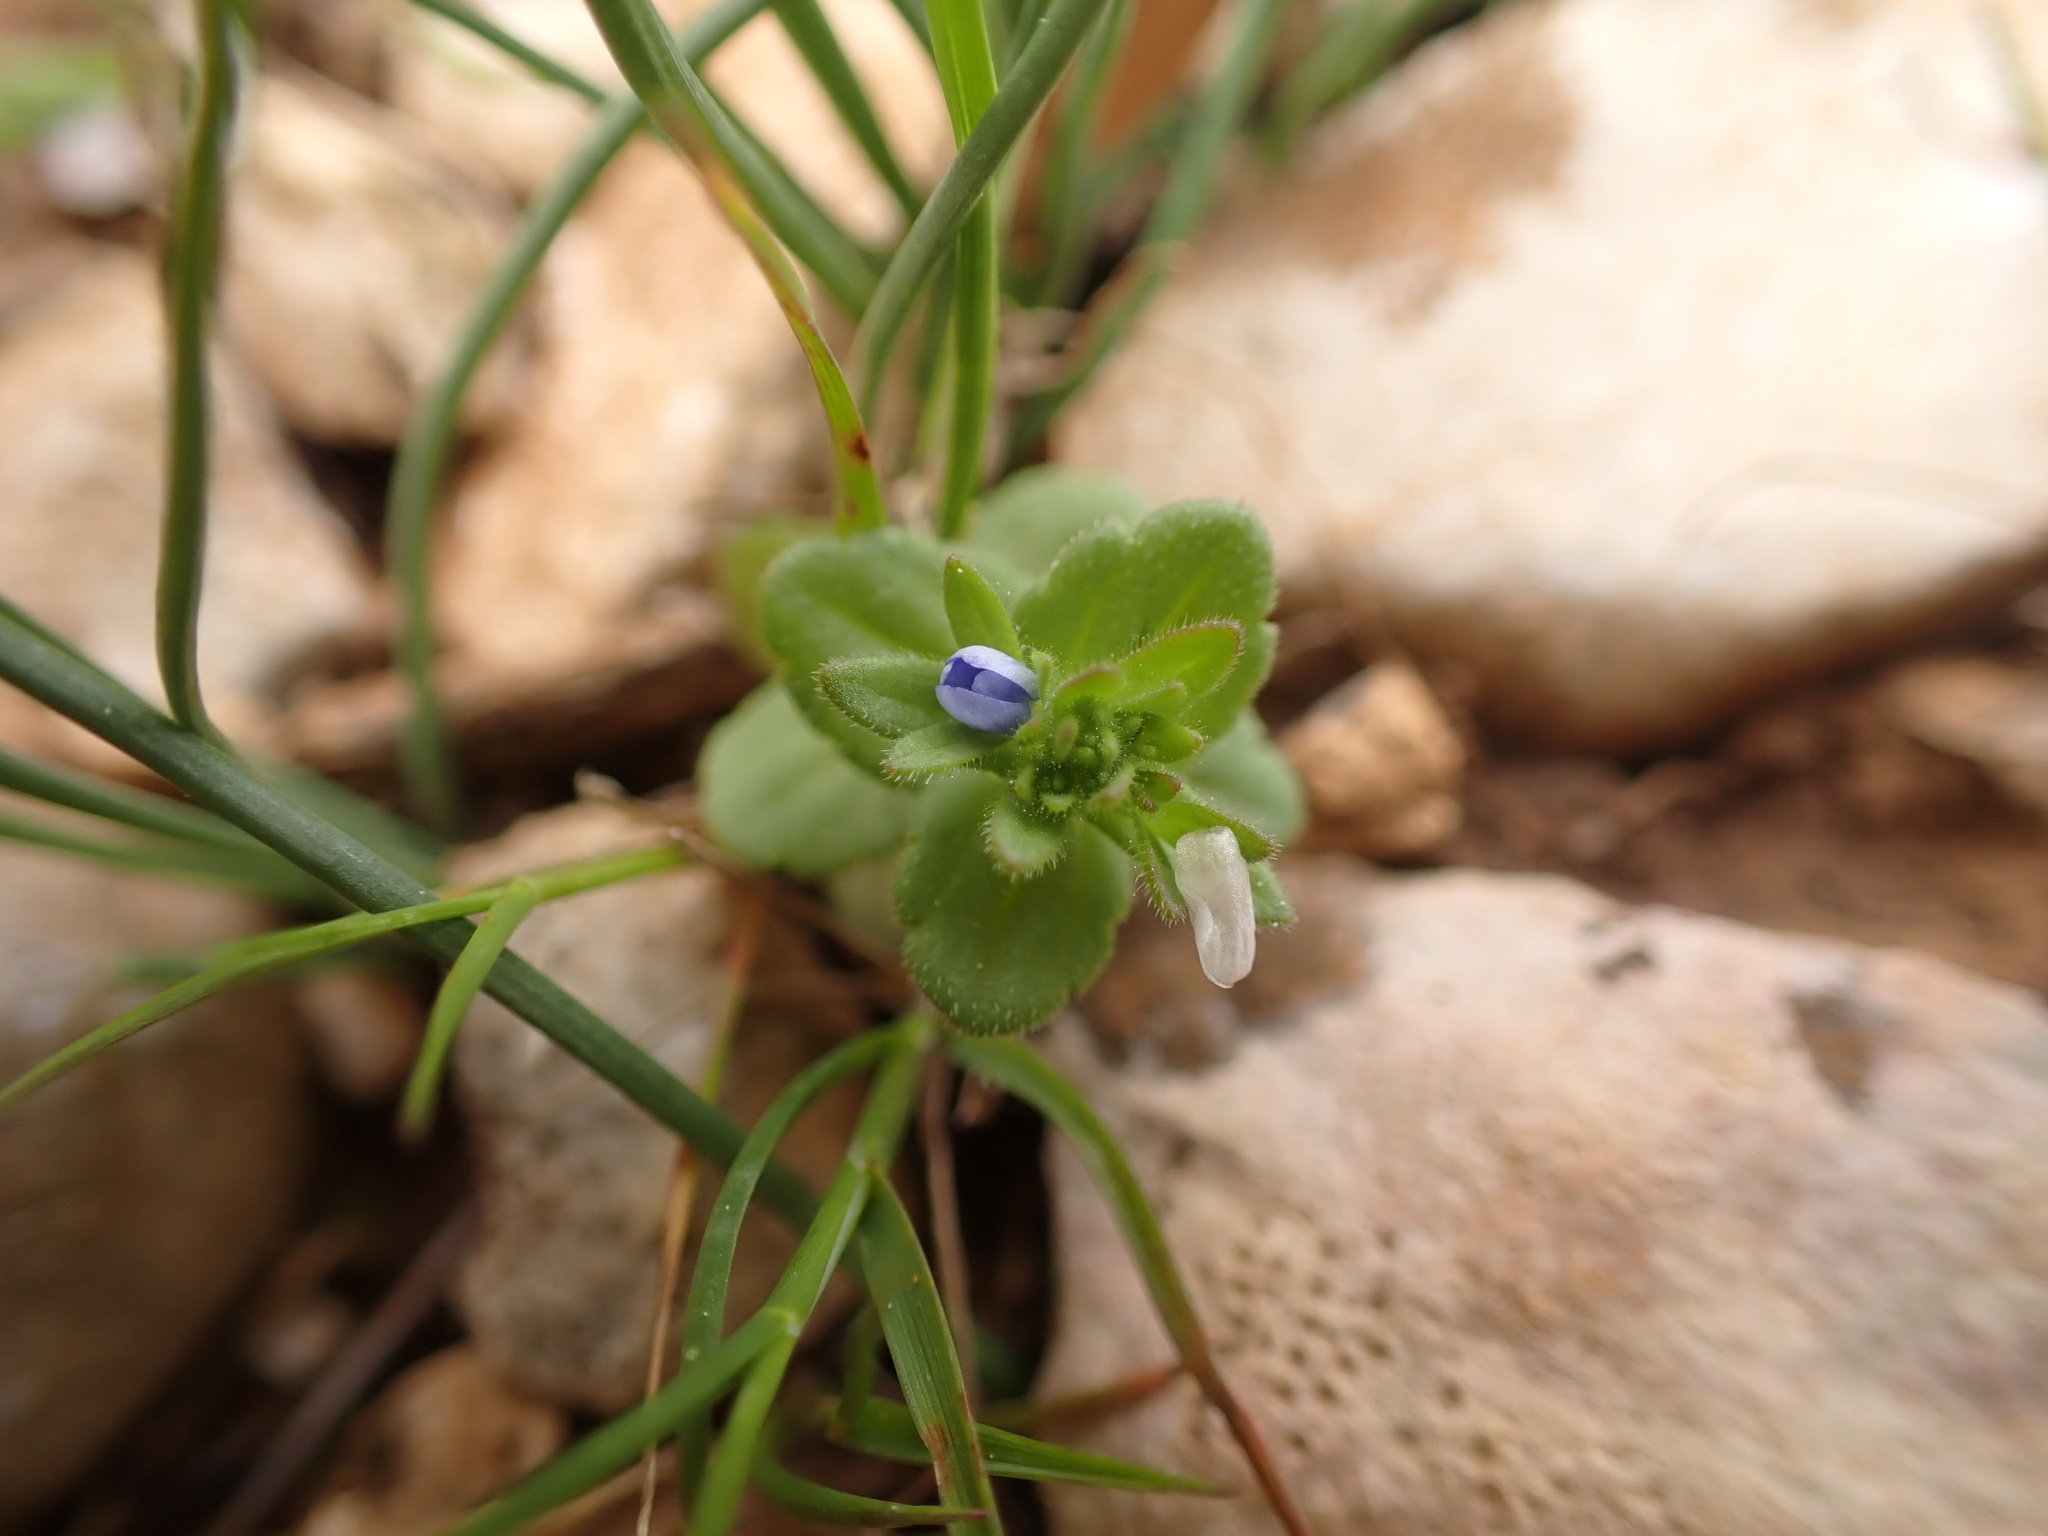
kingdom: Plantae
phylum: Tracheophyta
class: Magnoliopsida
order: Lamiales
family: Plantaginaceae
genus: Veronica
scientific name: Veronica arvensis
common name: Corn speedwell
